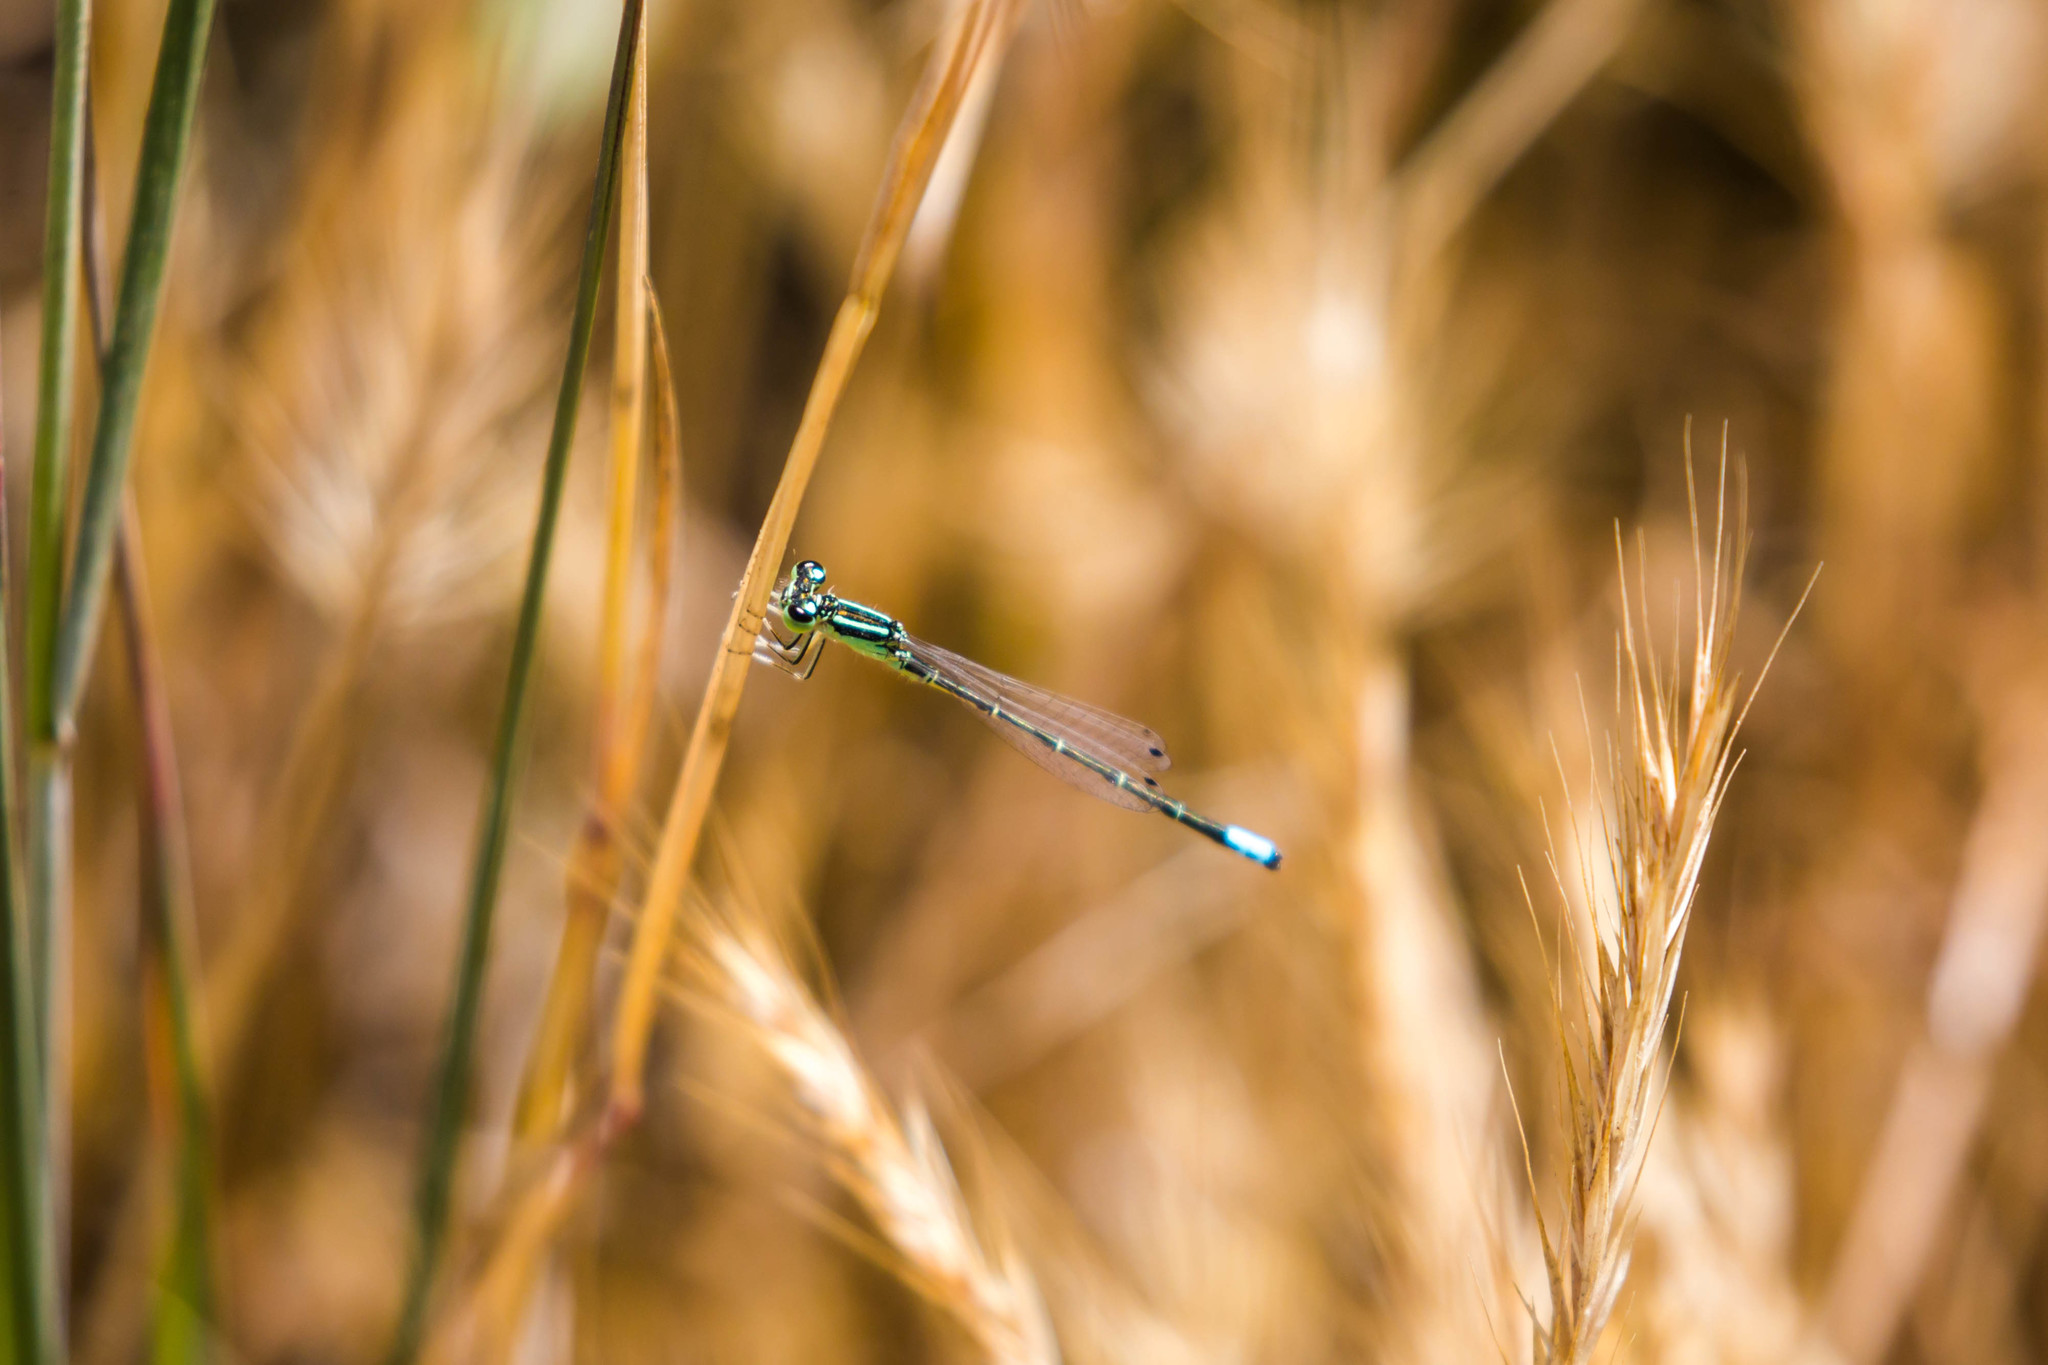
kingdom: Animalia
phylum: Arthropoda
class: Insecta
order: Odonata
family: Coenagrionidae
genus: Ischnura
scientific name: Ischnura perparva
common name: Western forktail
